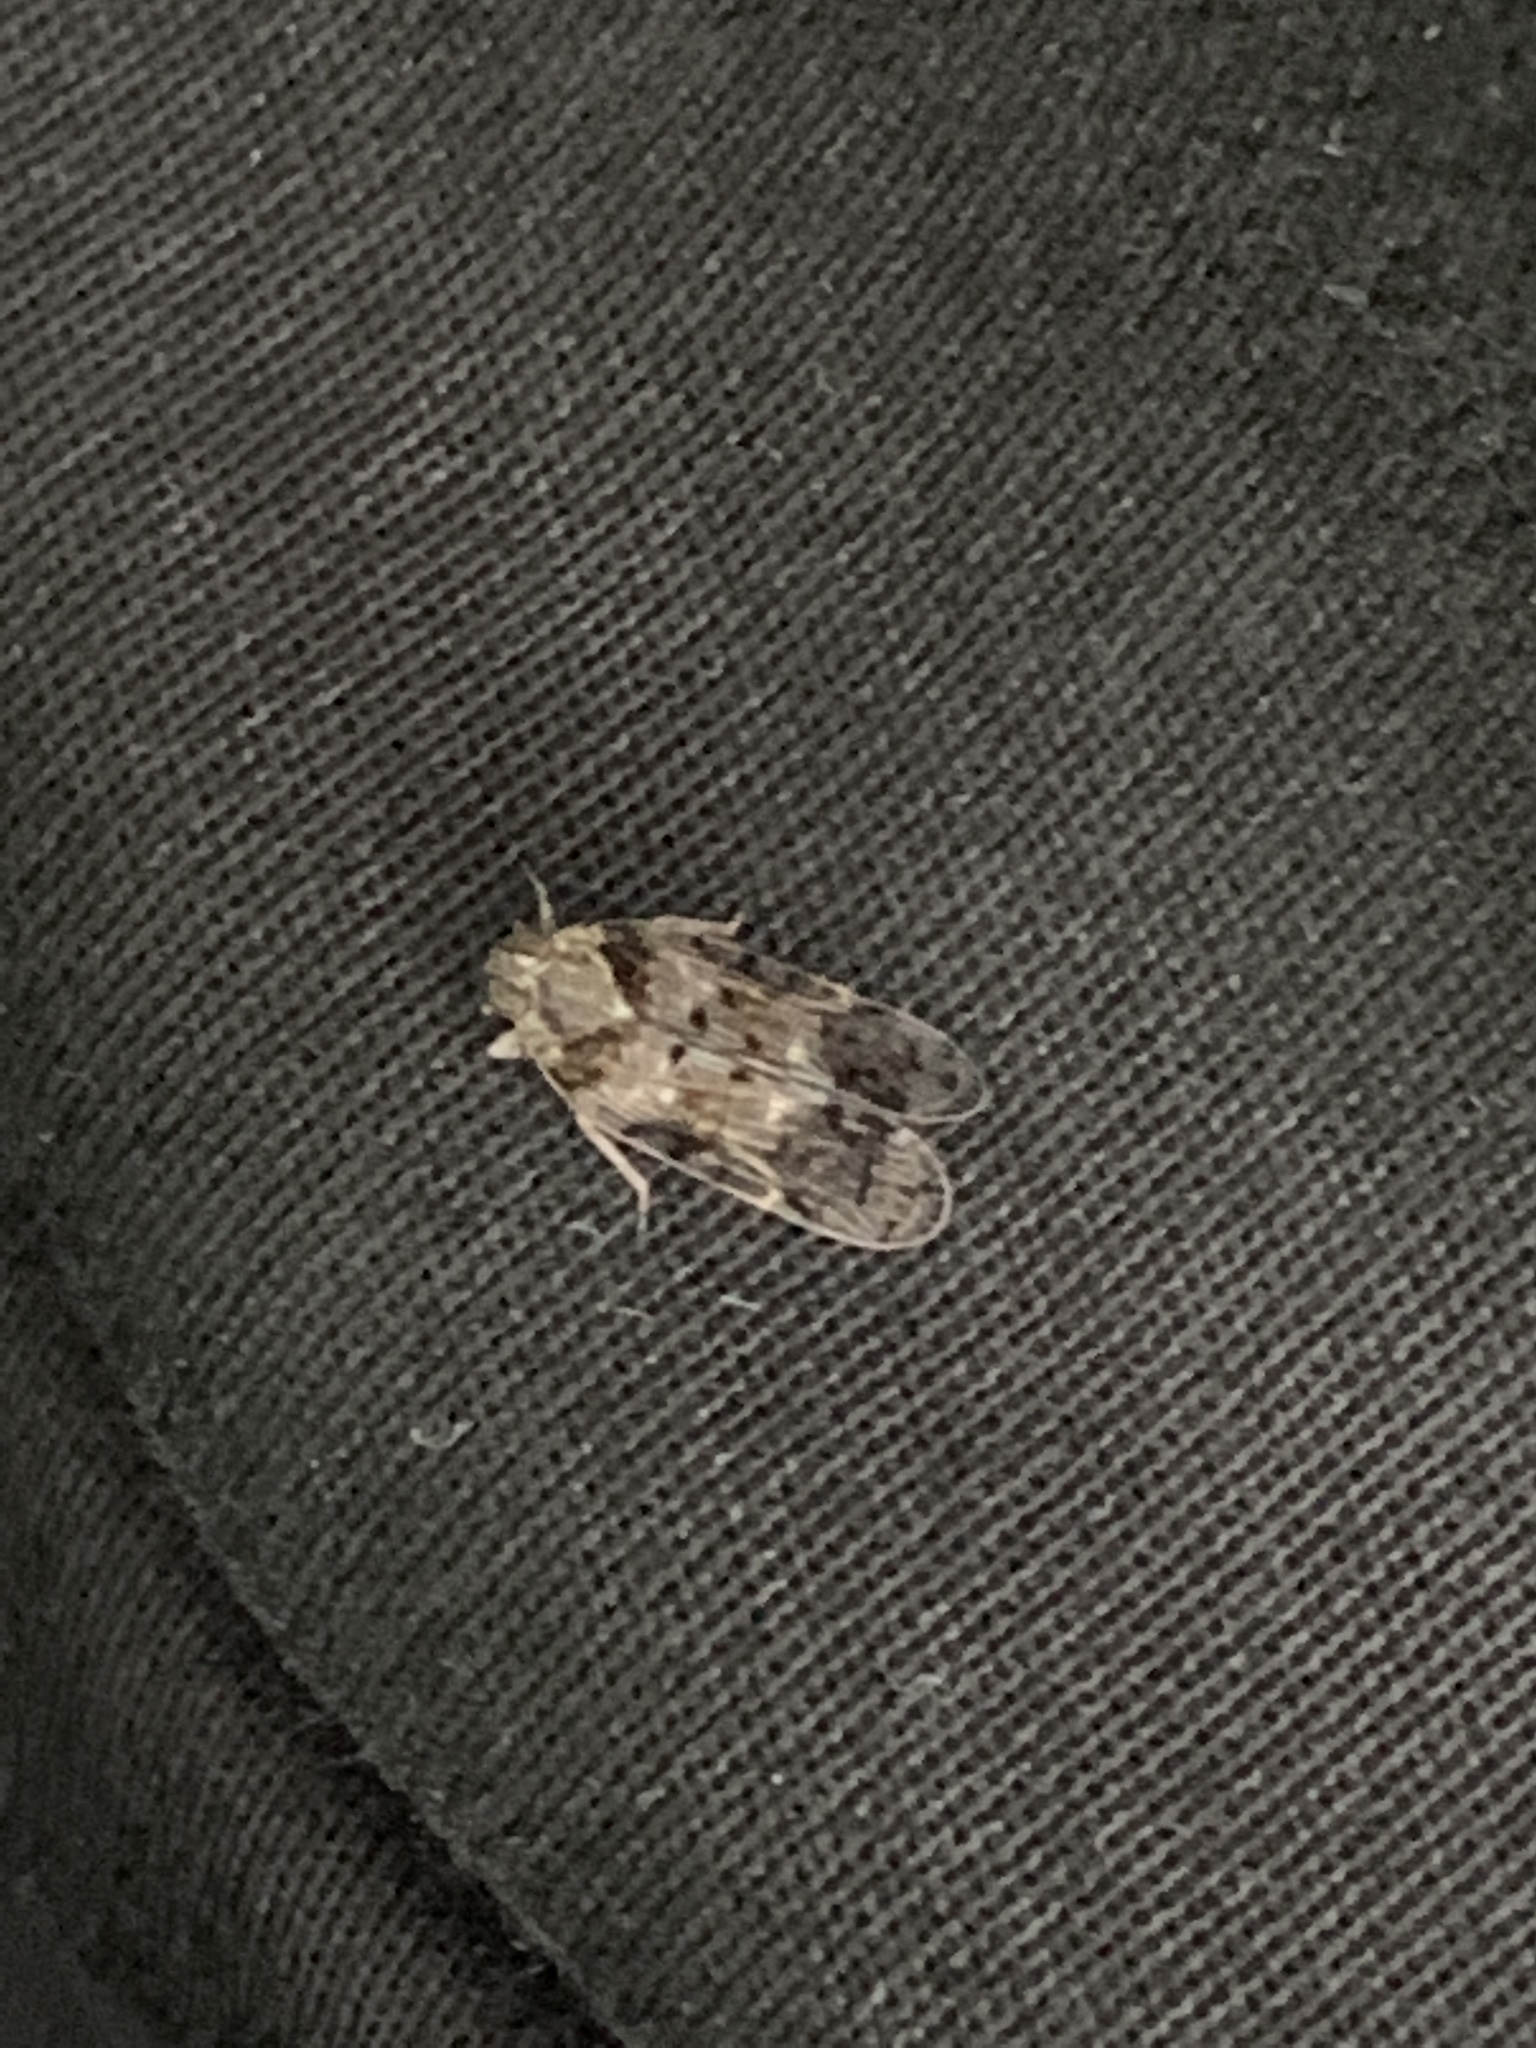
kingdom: Animalia
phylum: Arthropoda
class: Insecta
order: Hemiptera
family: Cixiidae
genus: Melanoliarus
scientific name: Melanoliarus placitus
